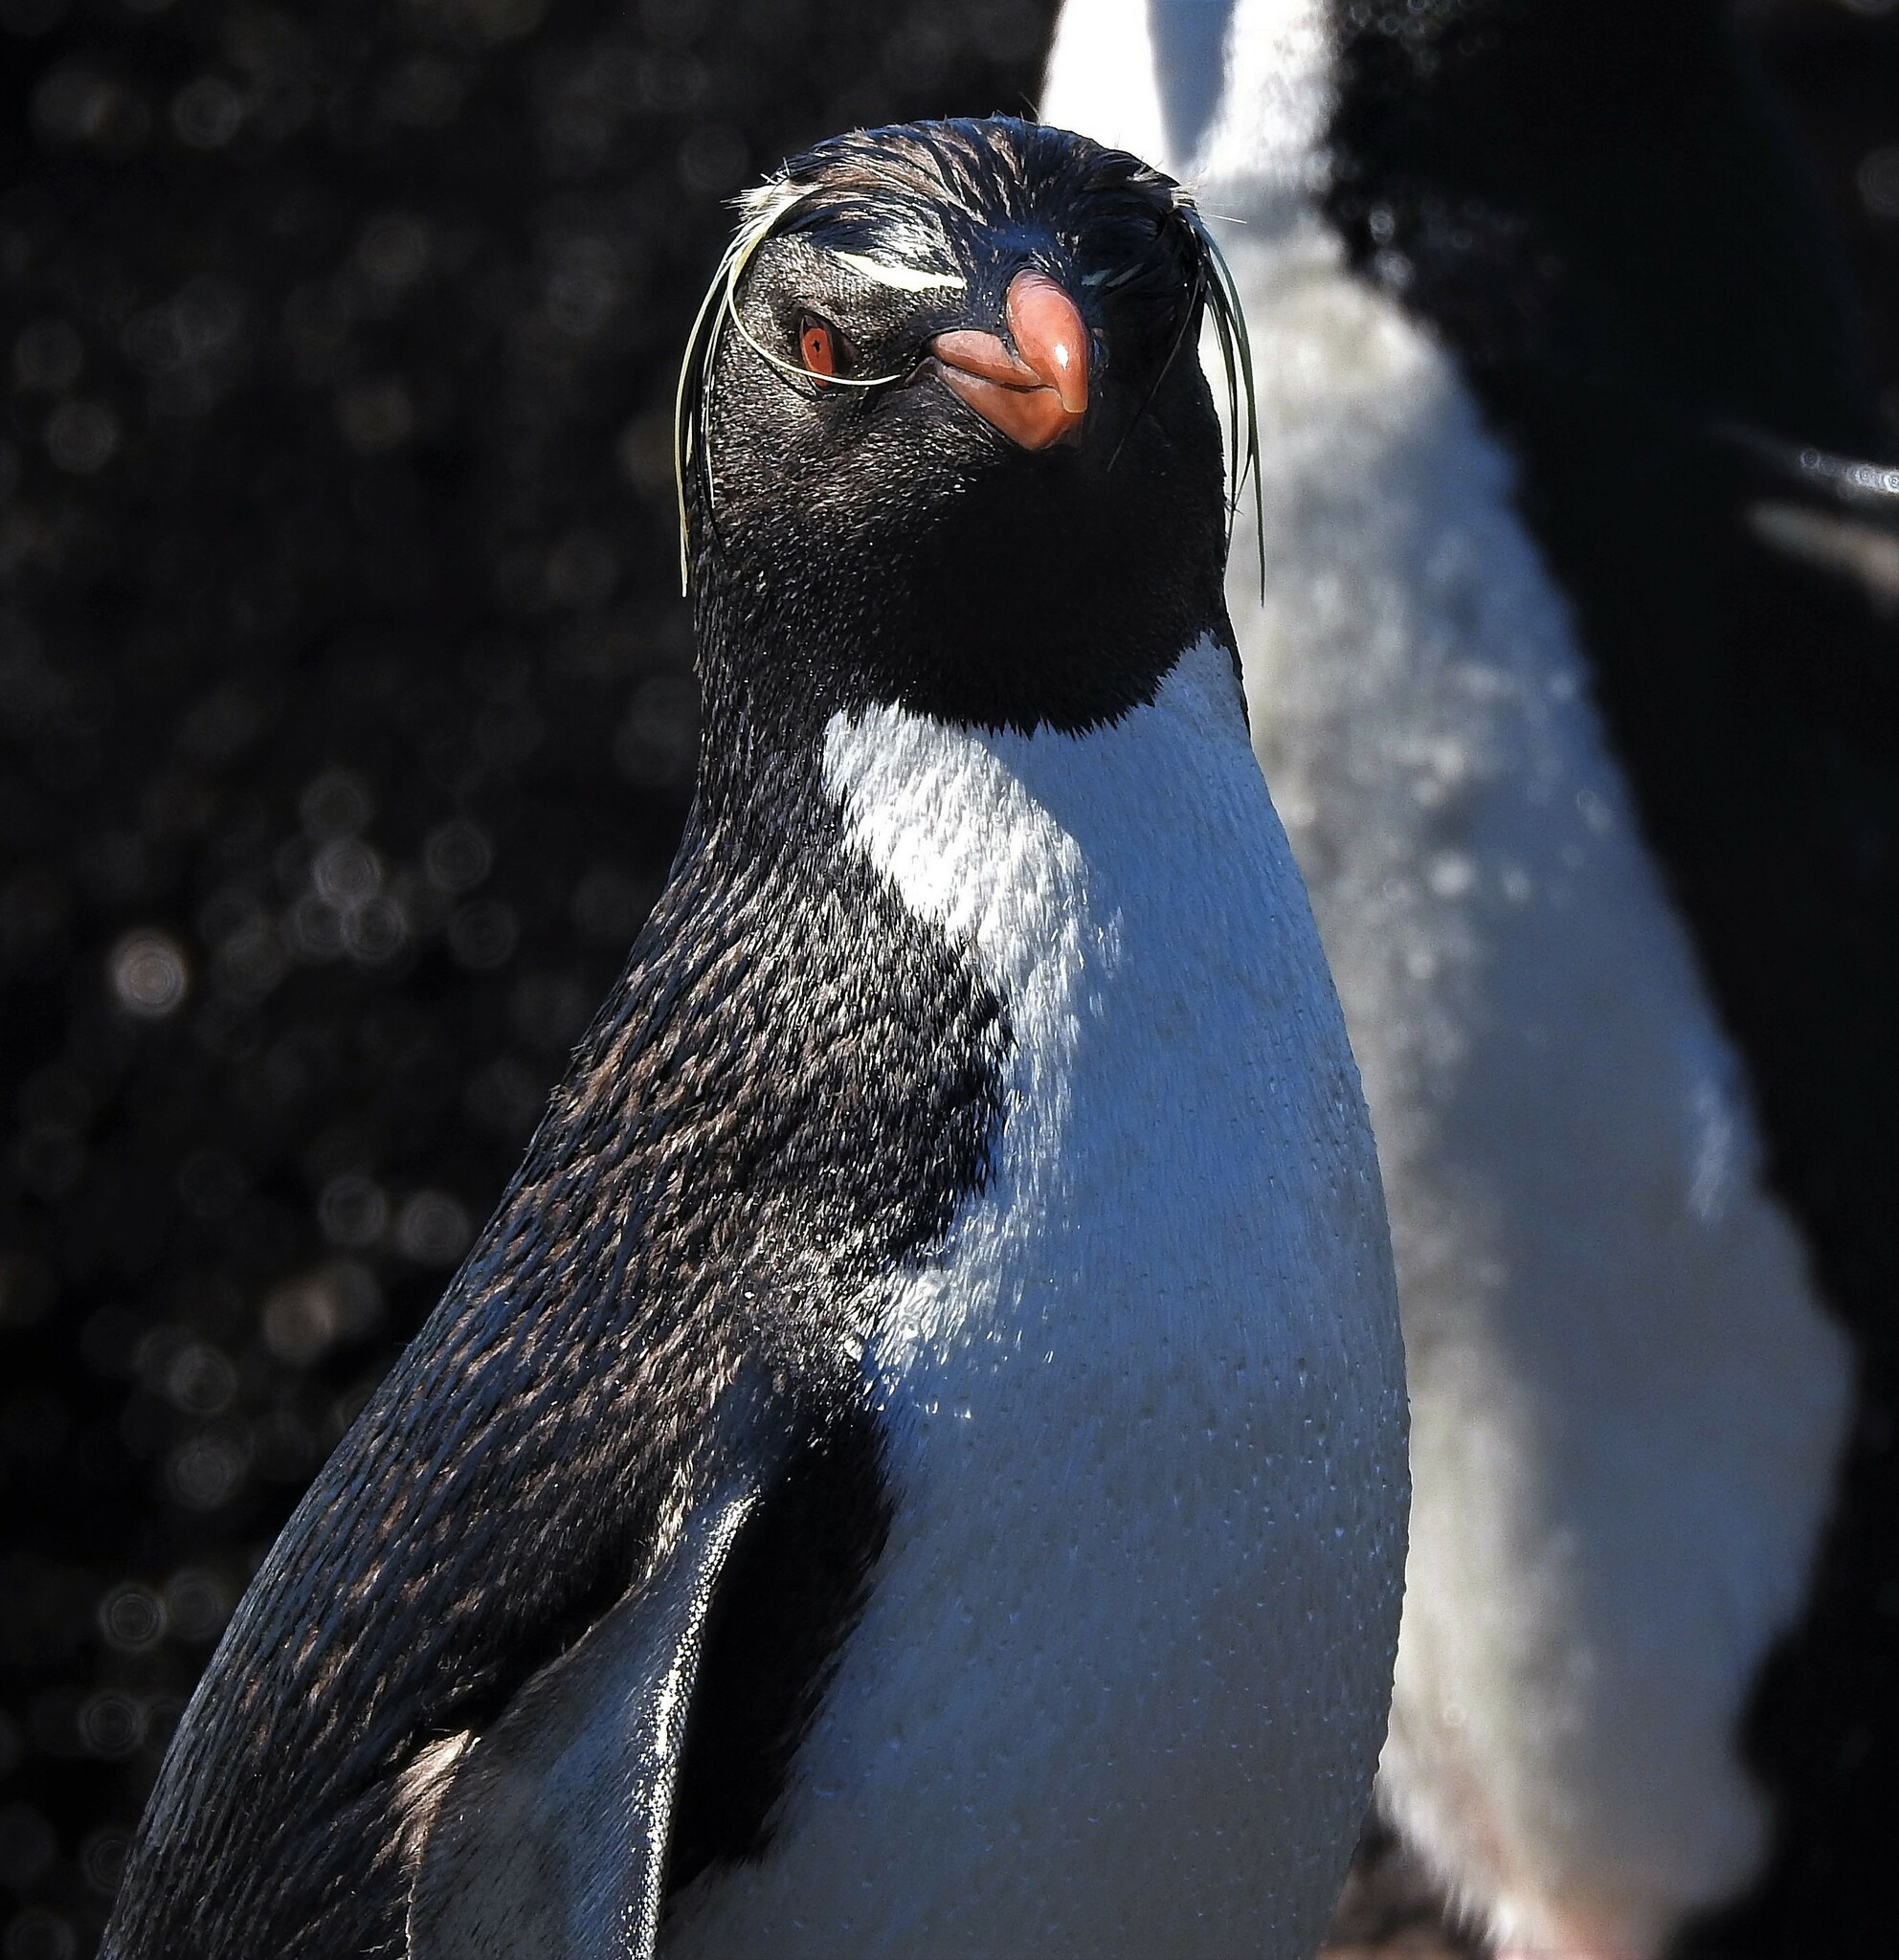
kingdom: Animalia
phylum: Chordata
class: Aves
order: Sphenisciformes
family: Spheniscidae
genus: Eudyptes
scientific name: Eudyptes chrysocome
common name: Southern rockhopper penguin
